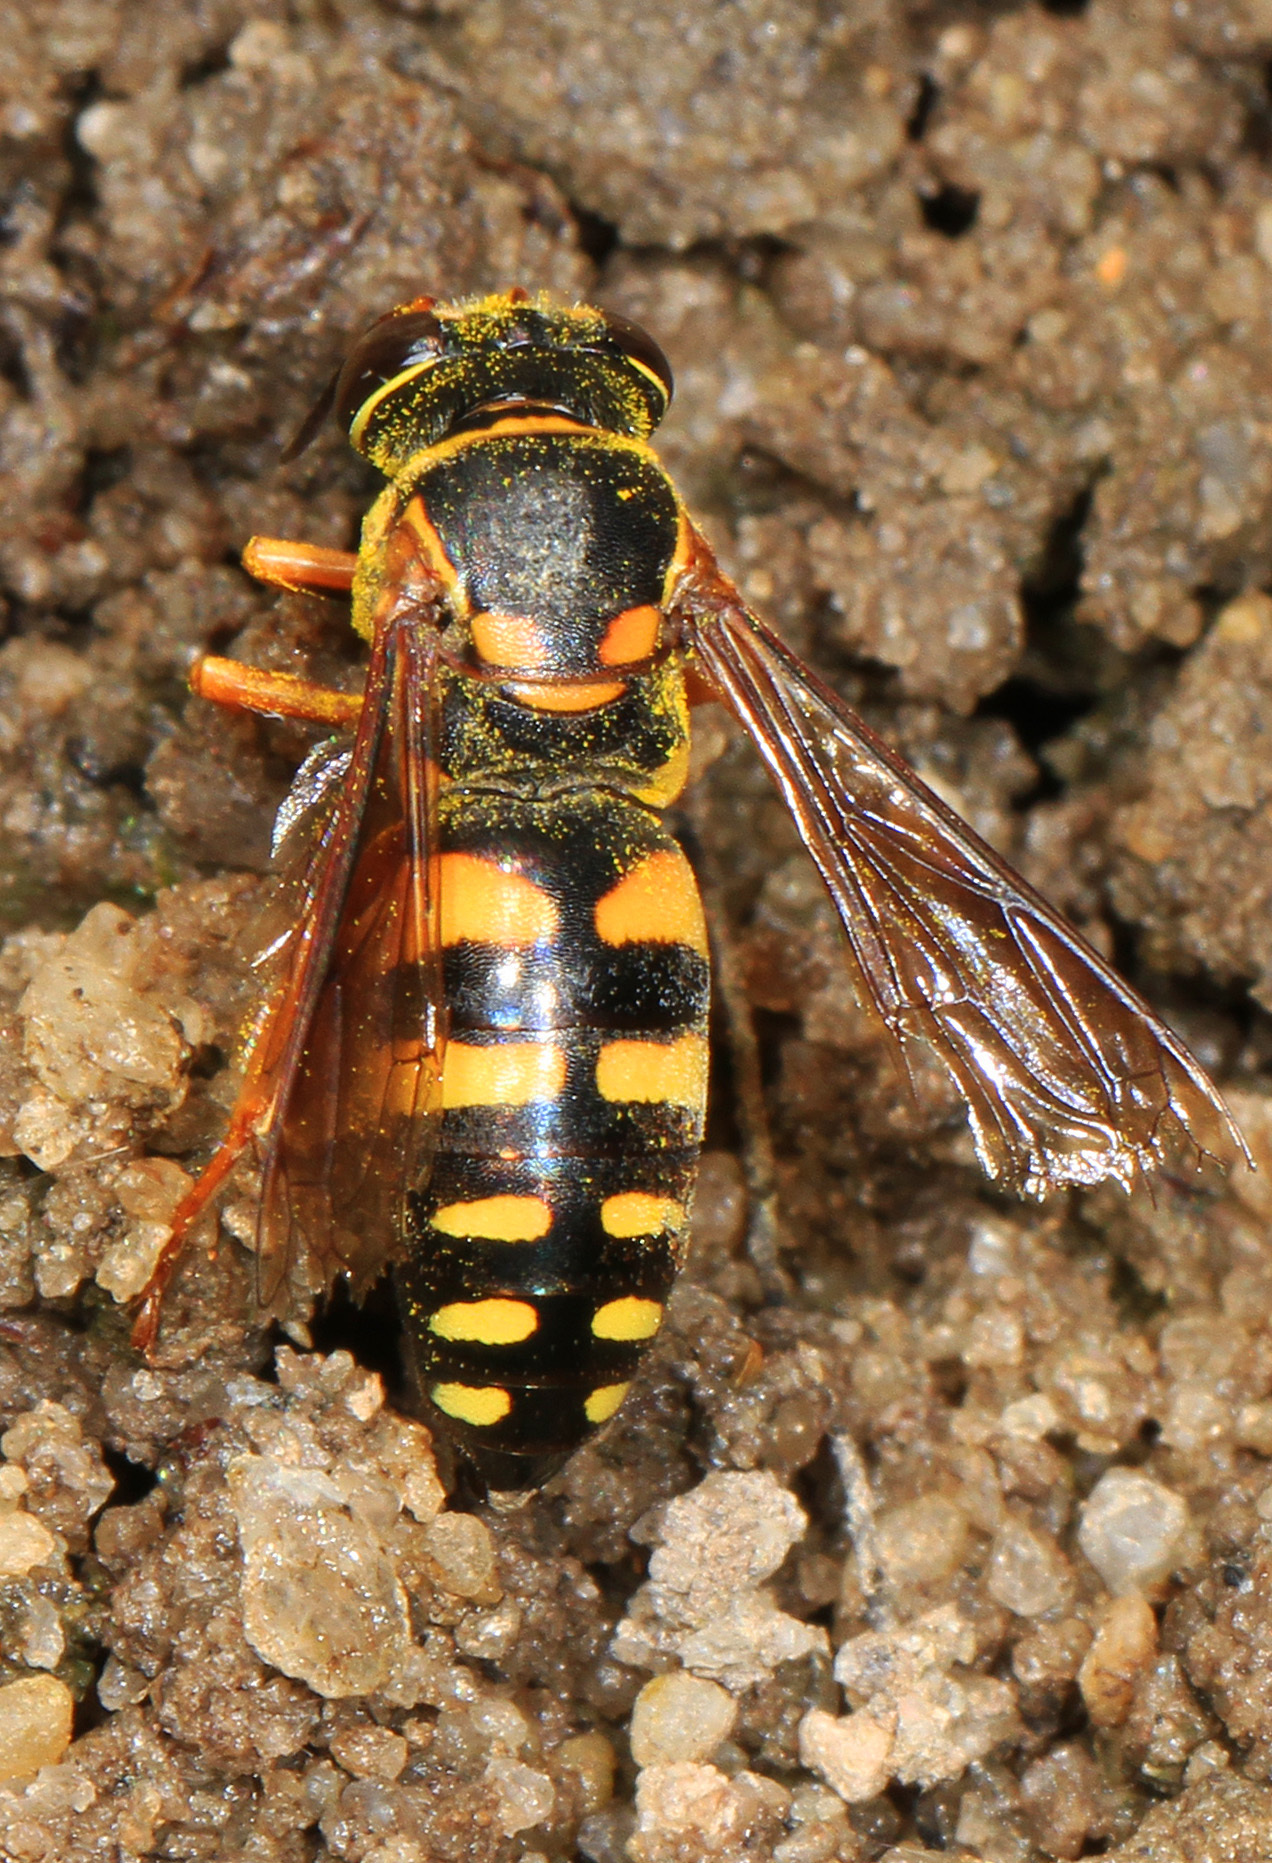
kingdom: Animalia
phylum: Arthropoda
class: Insecta
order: Hymenoptera
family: Crabronidae
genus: Bicyrtes
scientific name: Bicyrtes insidiatrix
